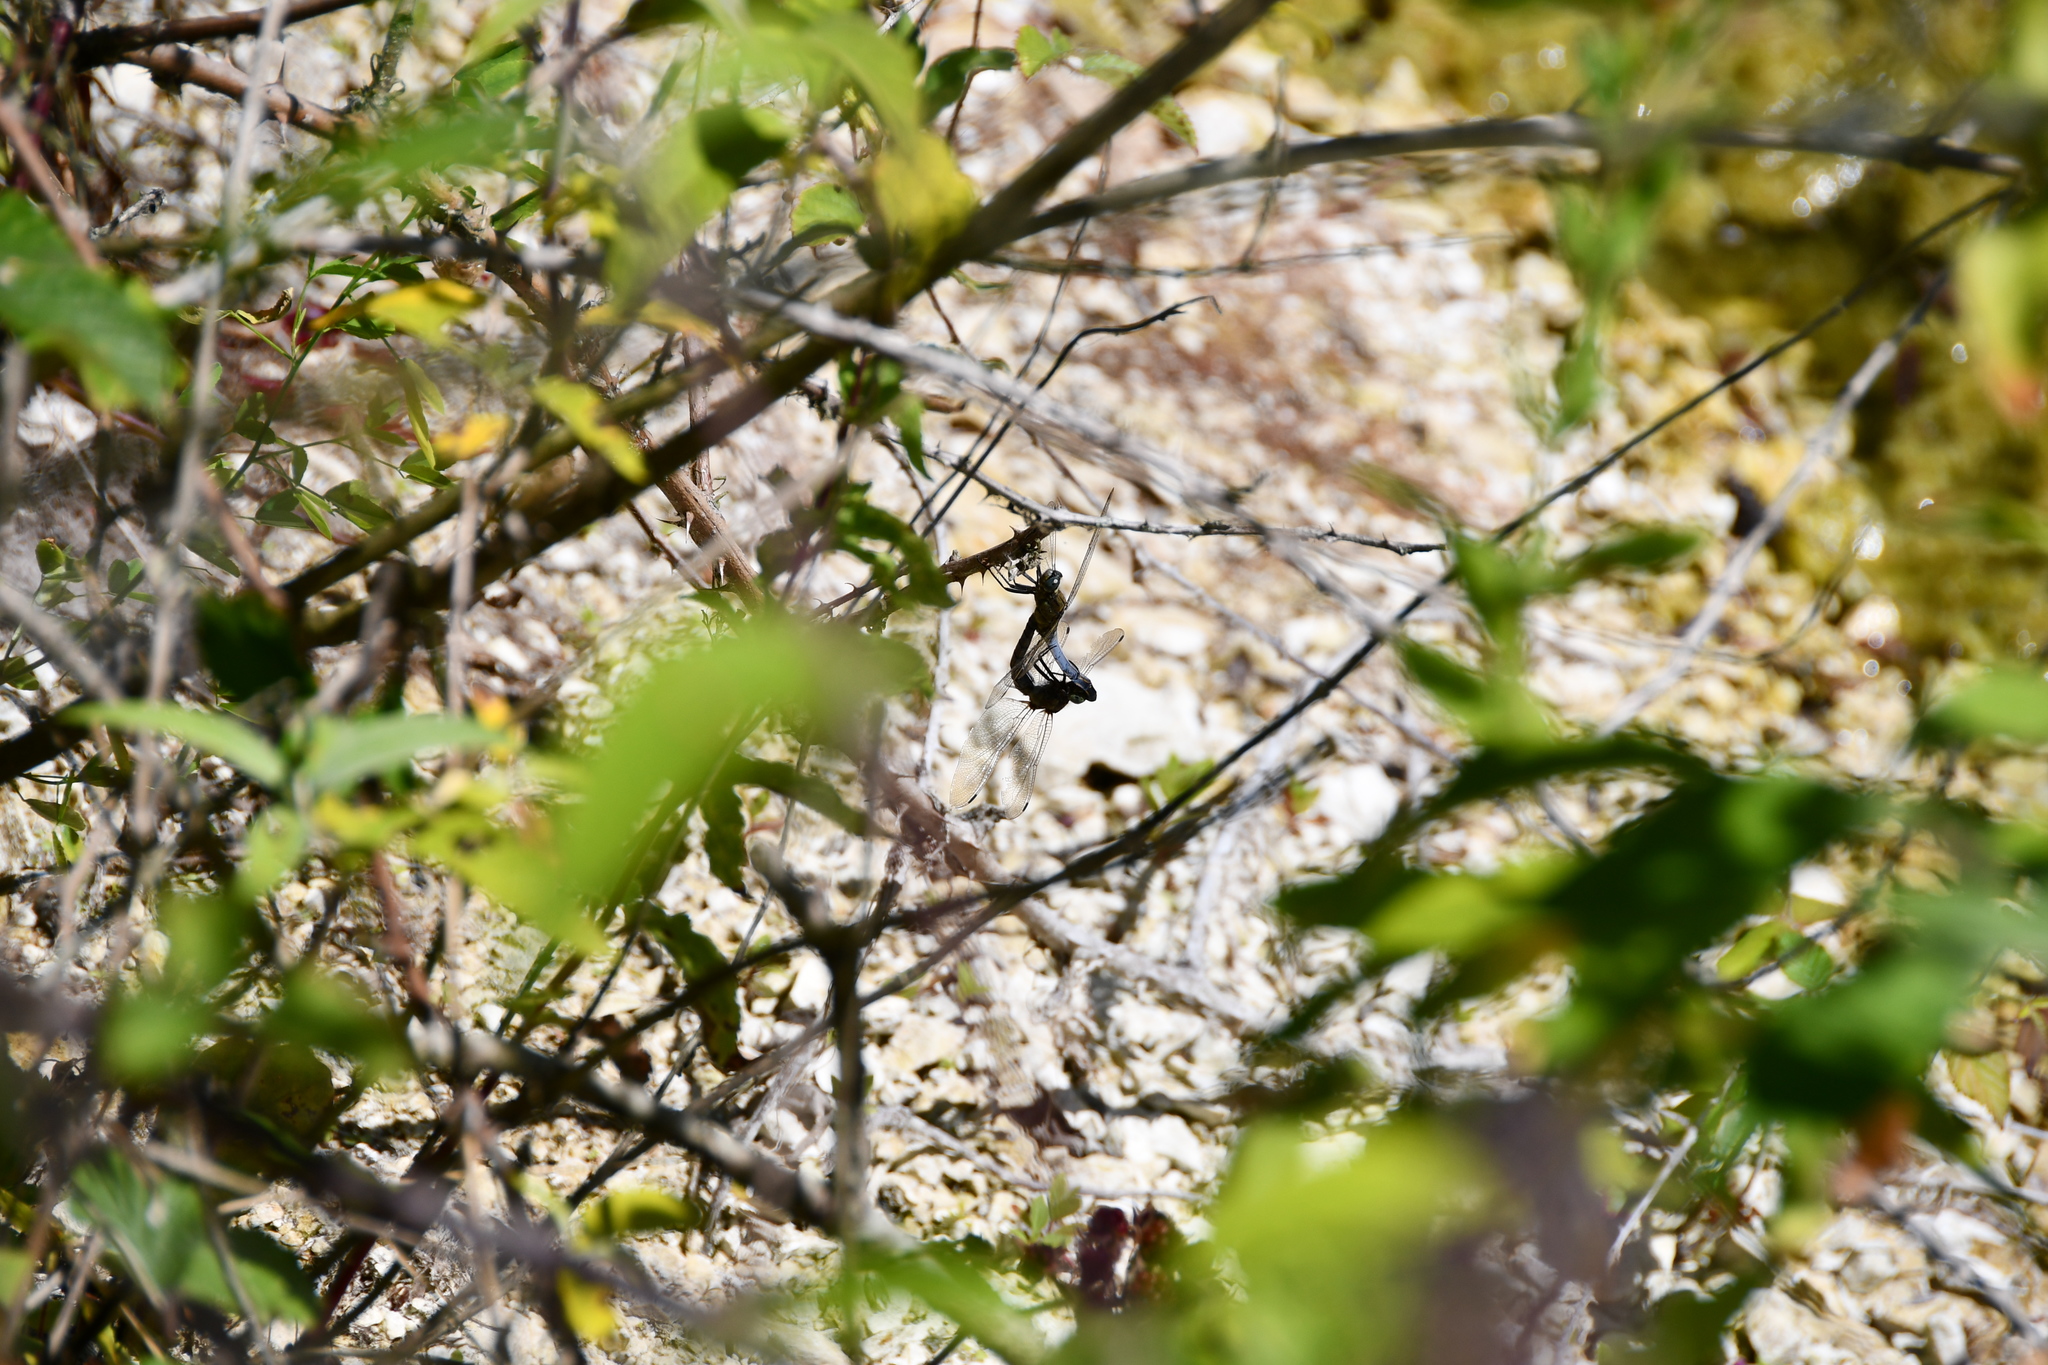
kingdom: Animalia
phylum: Arthropoda
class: Insecta
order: Odonata
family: Libellulidae
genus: Orthetrum
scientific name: Orthetrum cancellatum
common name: Black-tailed skimmer
